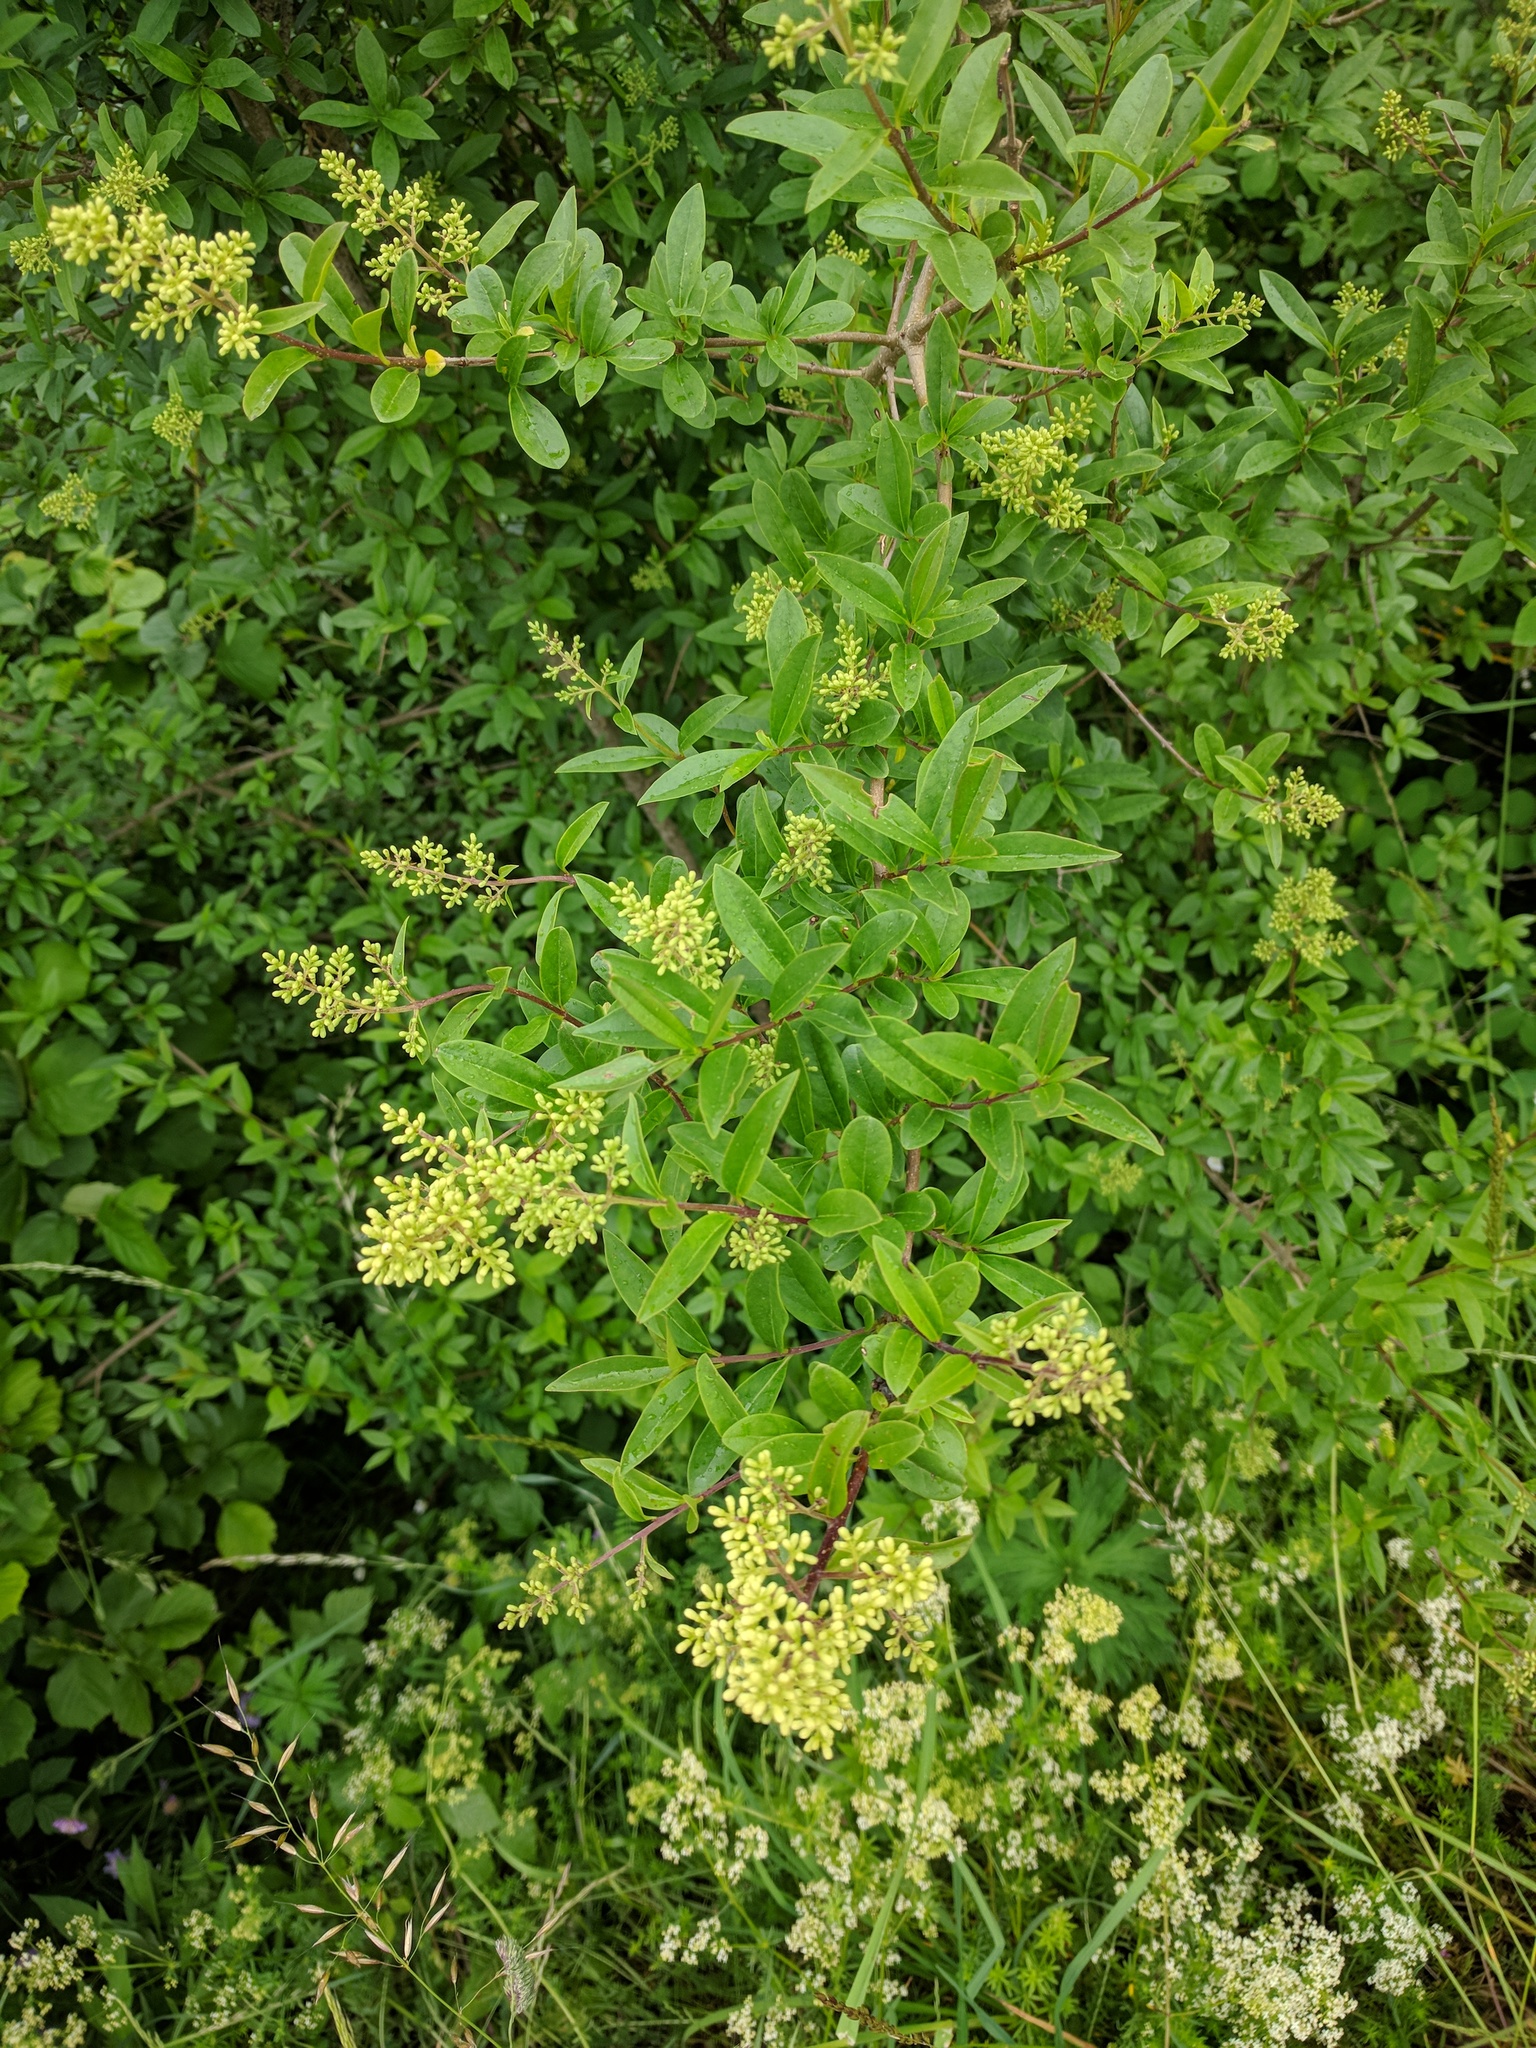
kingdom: Plantae
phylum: Tracheophyta
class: Magnoliopsida
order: Lamiales
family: Oleaceae
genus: Ligustrum
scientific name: Ligustrum vulgare
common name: Wild privet
